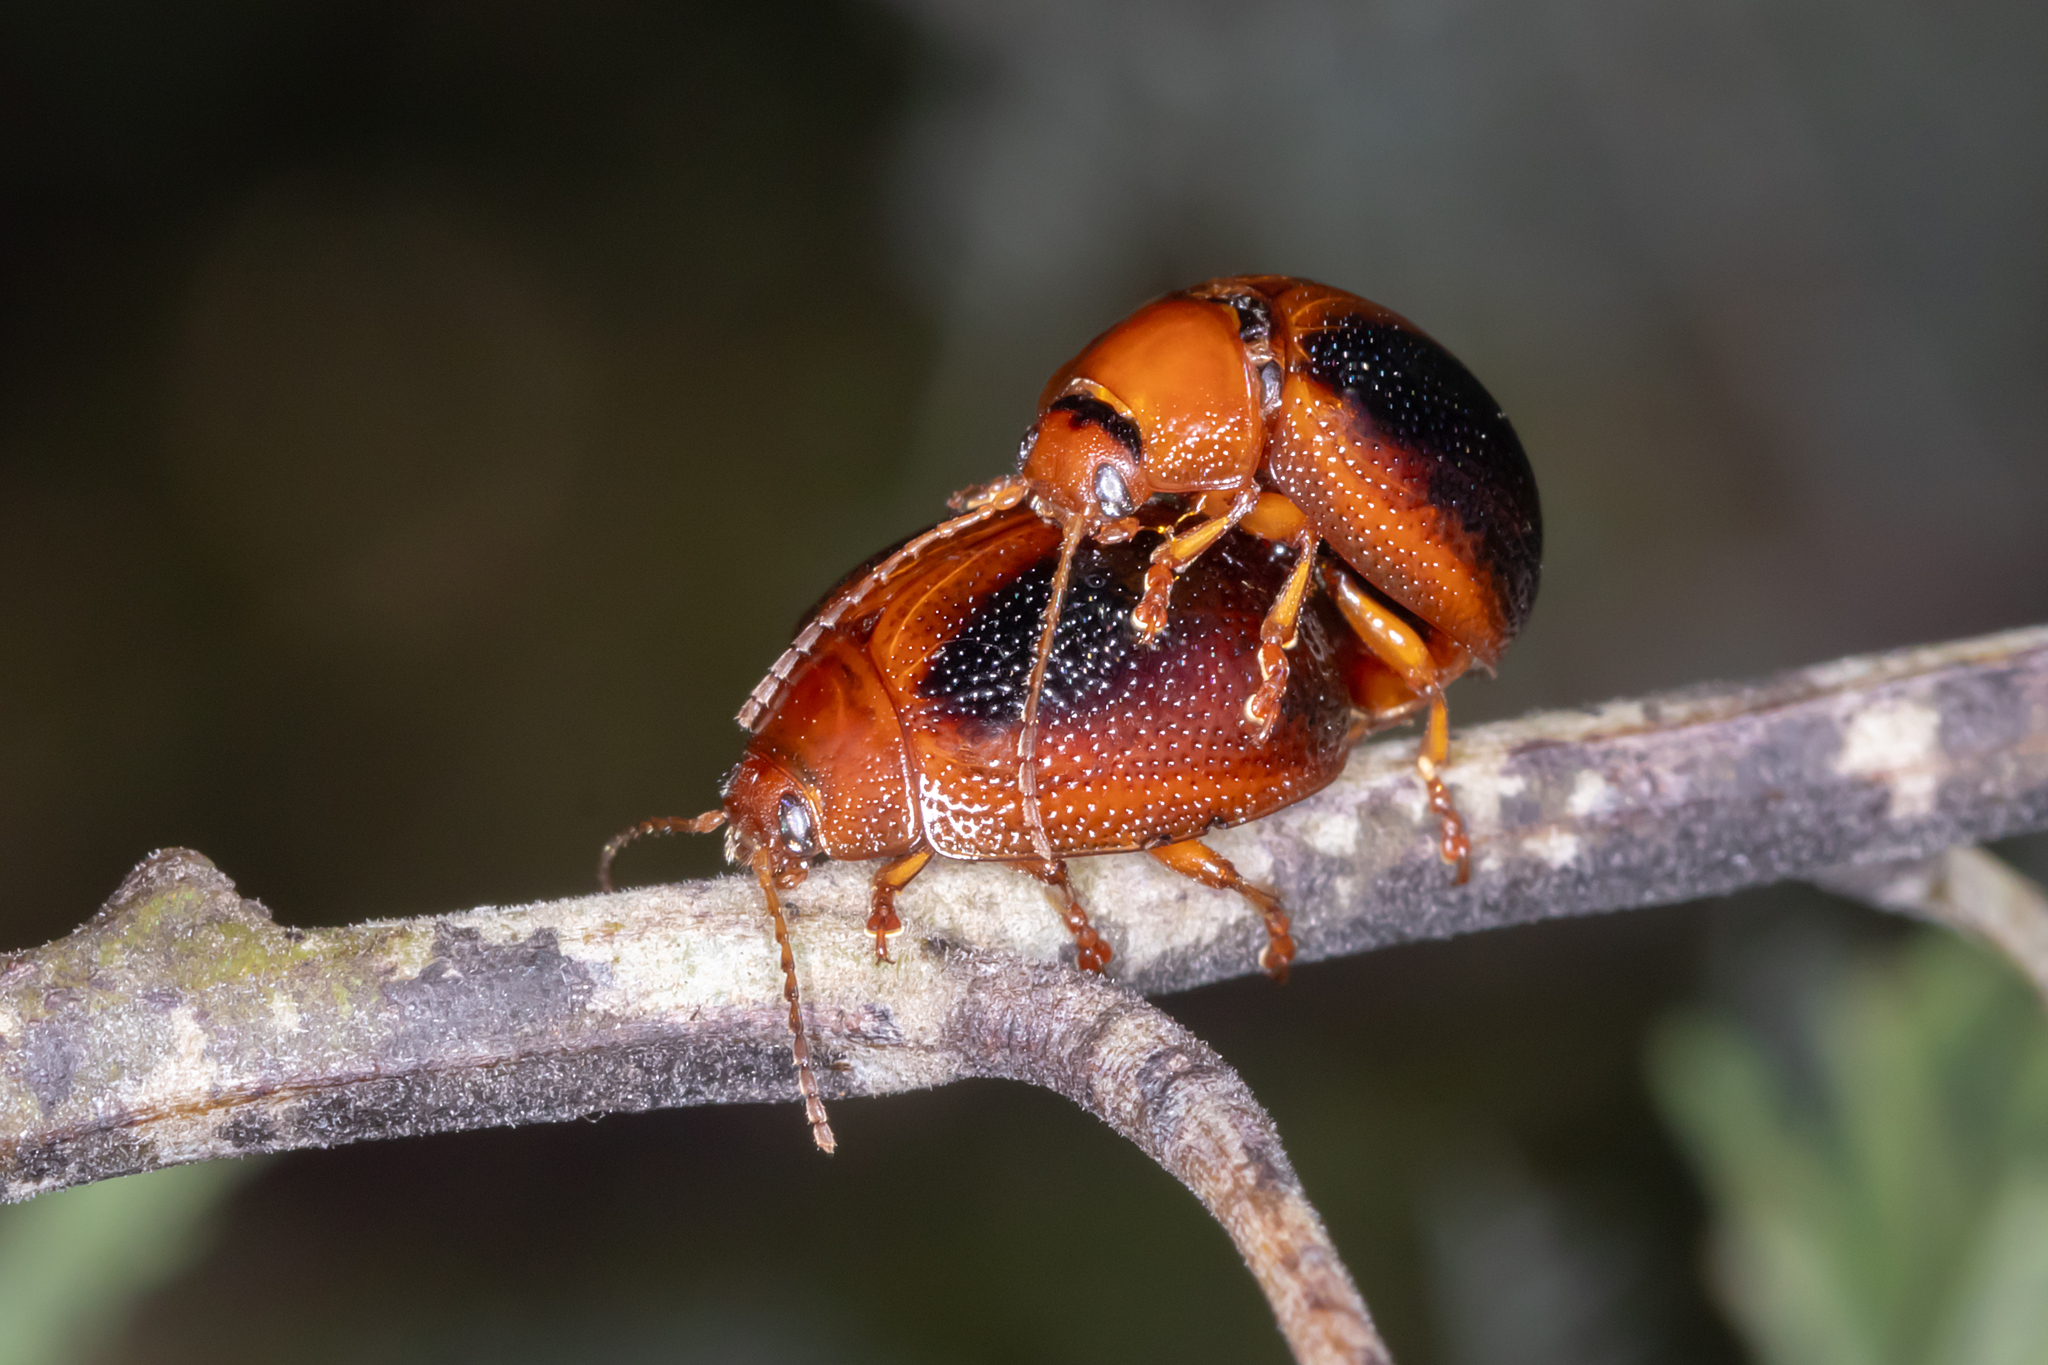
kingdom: Animalia
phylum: Arthropoda
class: Insecta
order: Coleoptera
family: Chrysomelidae
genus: Dicranosterna
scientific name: Dicranosterna
